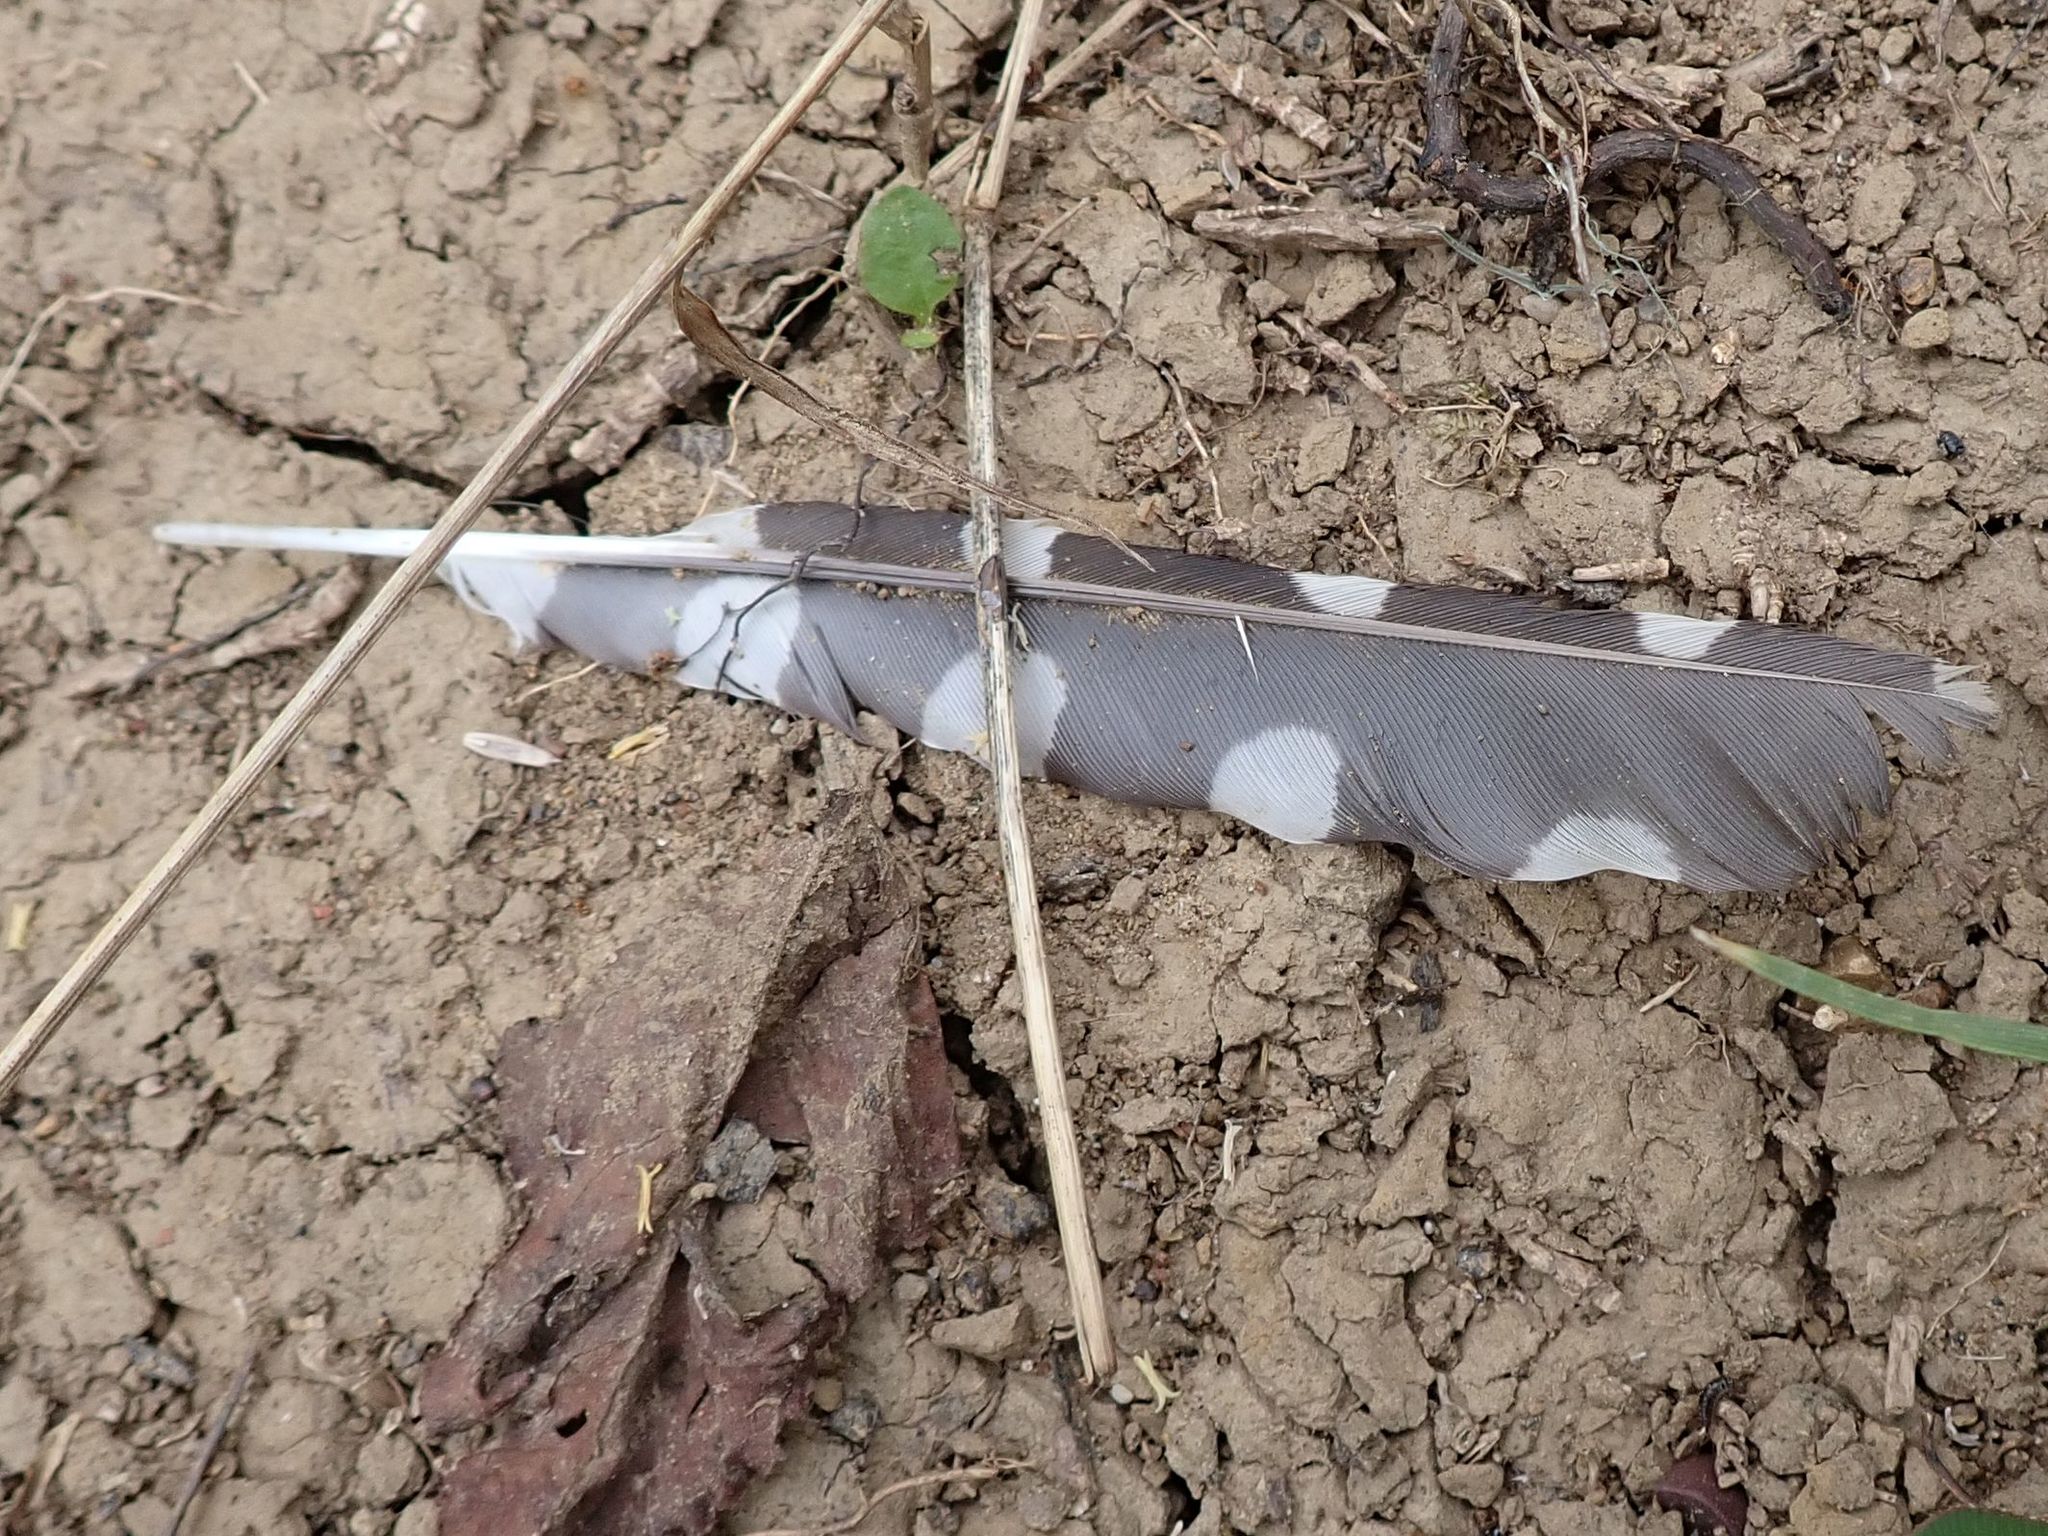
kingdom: Animalia
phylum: Chordata
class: Aves
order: Piciformes
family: Picidae
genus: Dendrocopos
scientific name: Dendrocopos major
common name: Great spotted woodpecker
